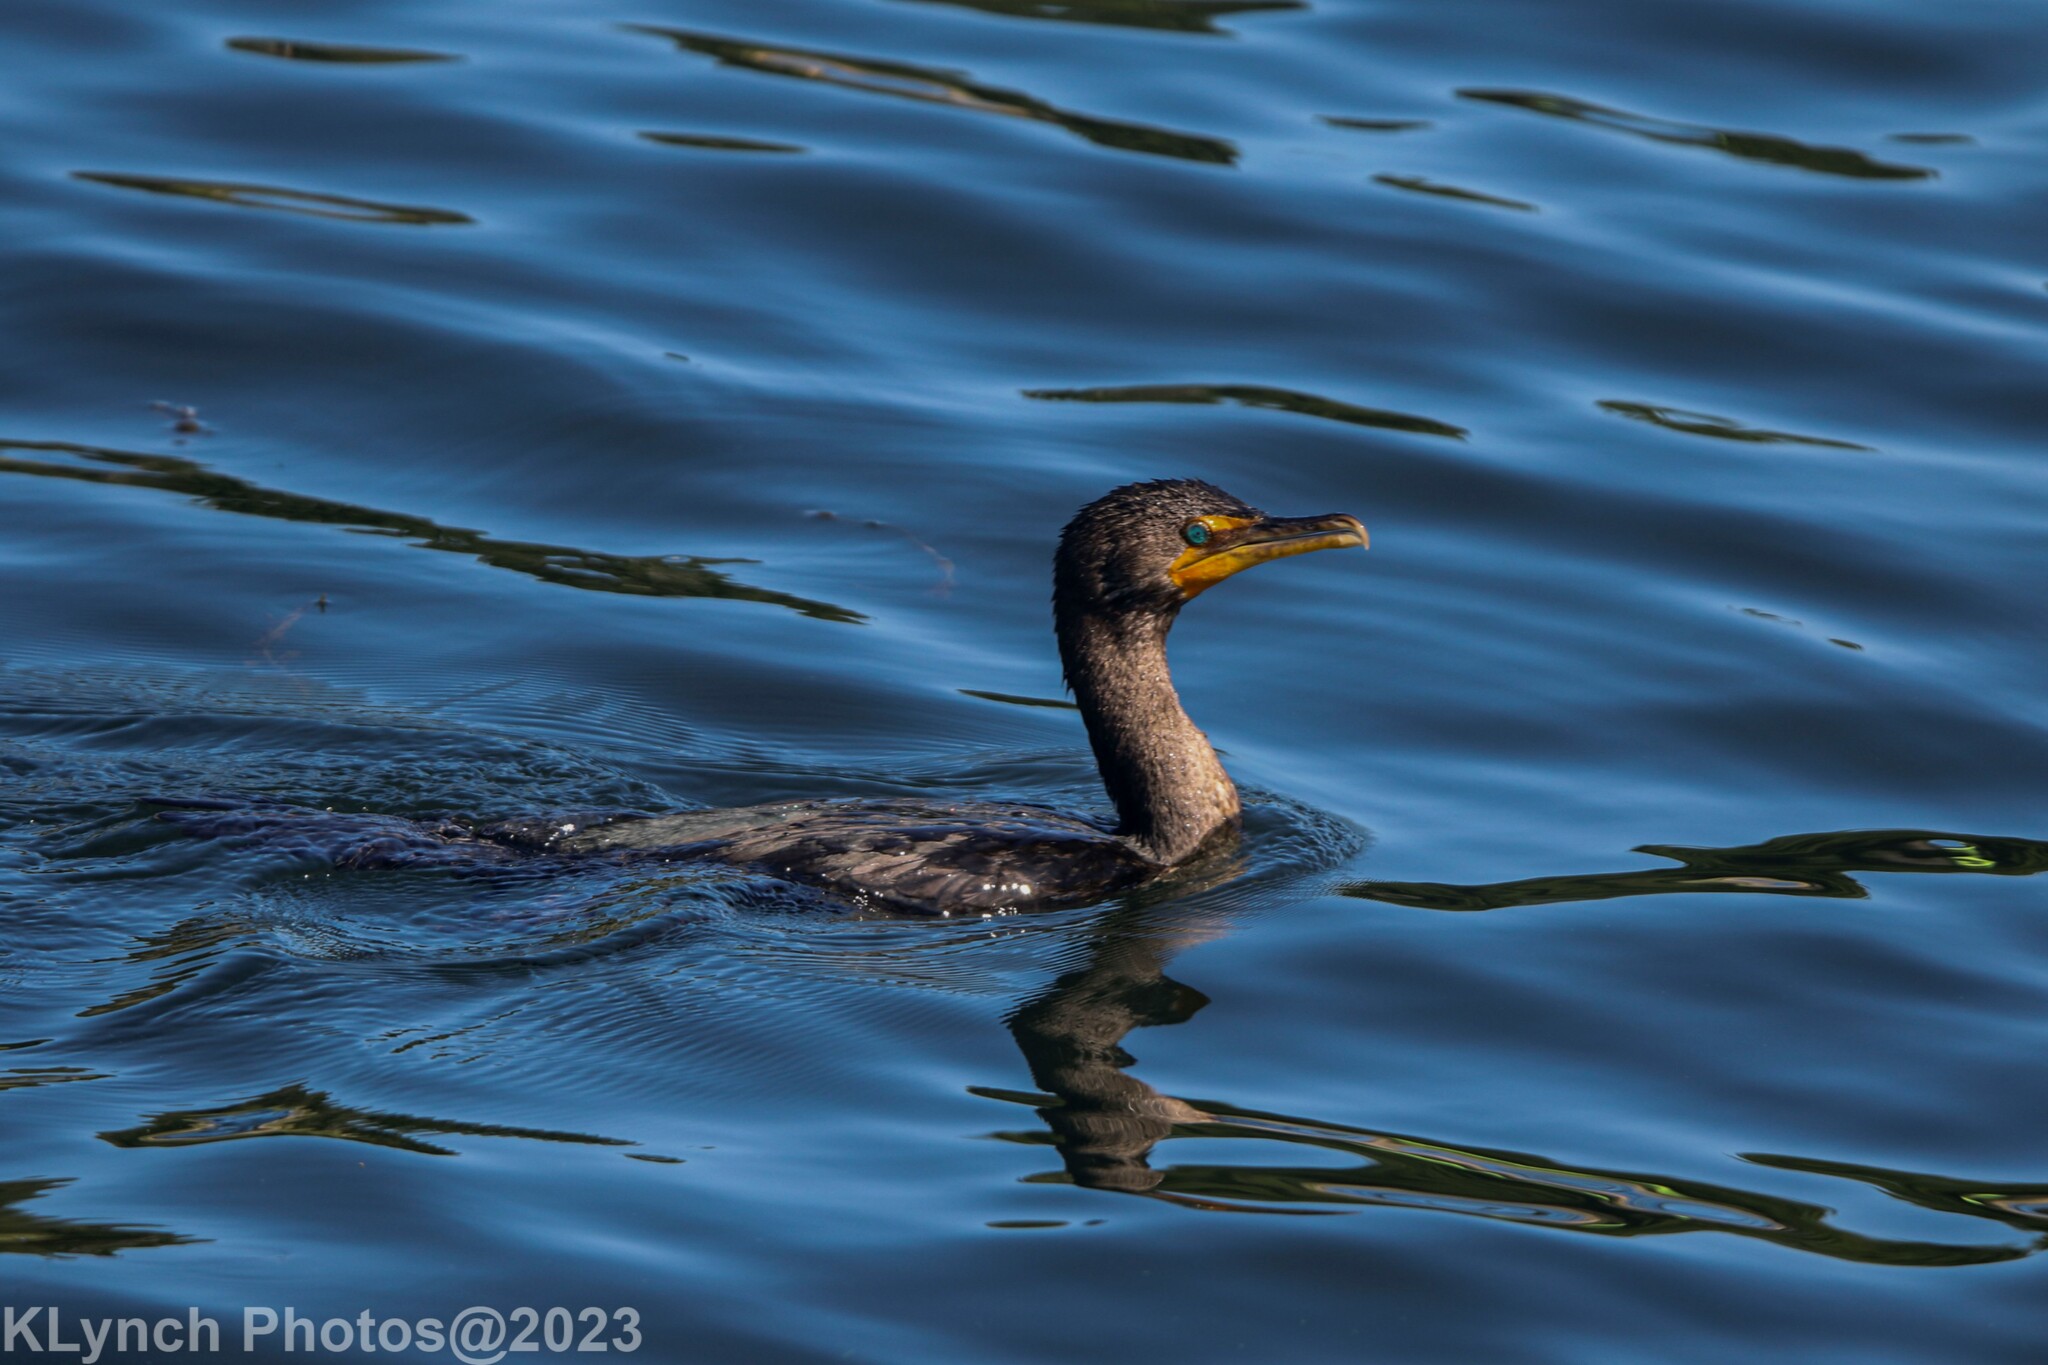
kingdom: Animalia
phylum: Chordata
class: Aves
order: Suliformes
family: Phalacrocoracidae
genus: Phalacrocorax
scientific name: Phalacrocorax auritus
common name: Double-crested cormorant
